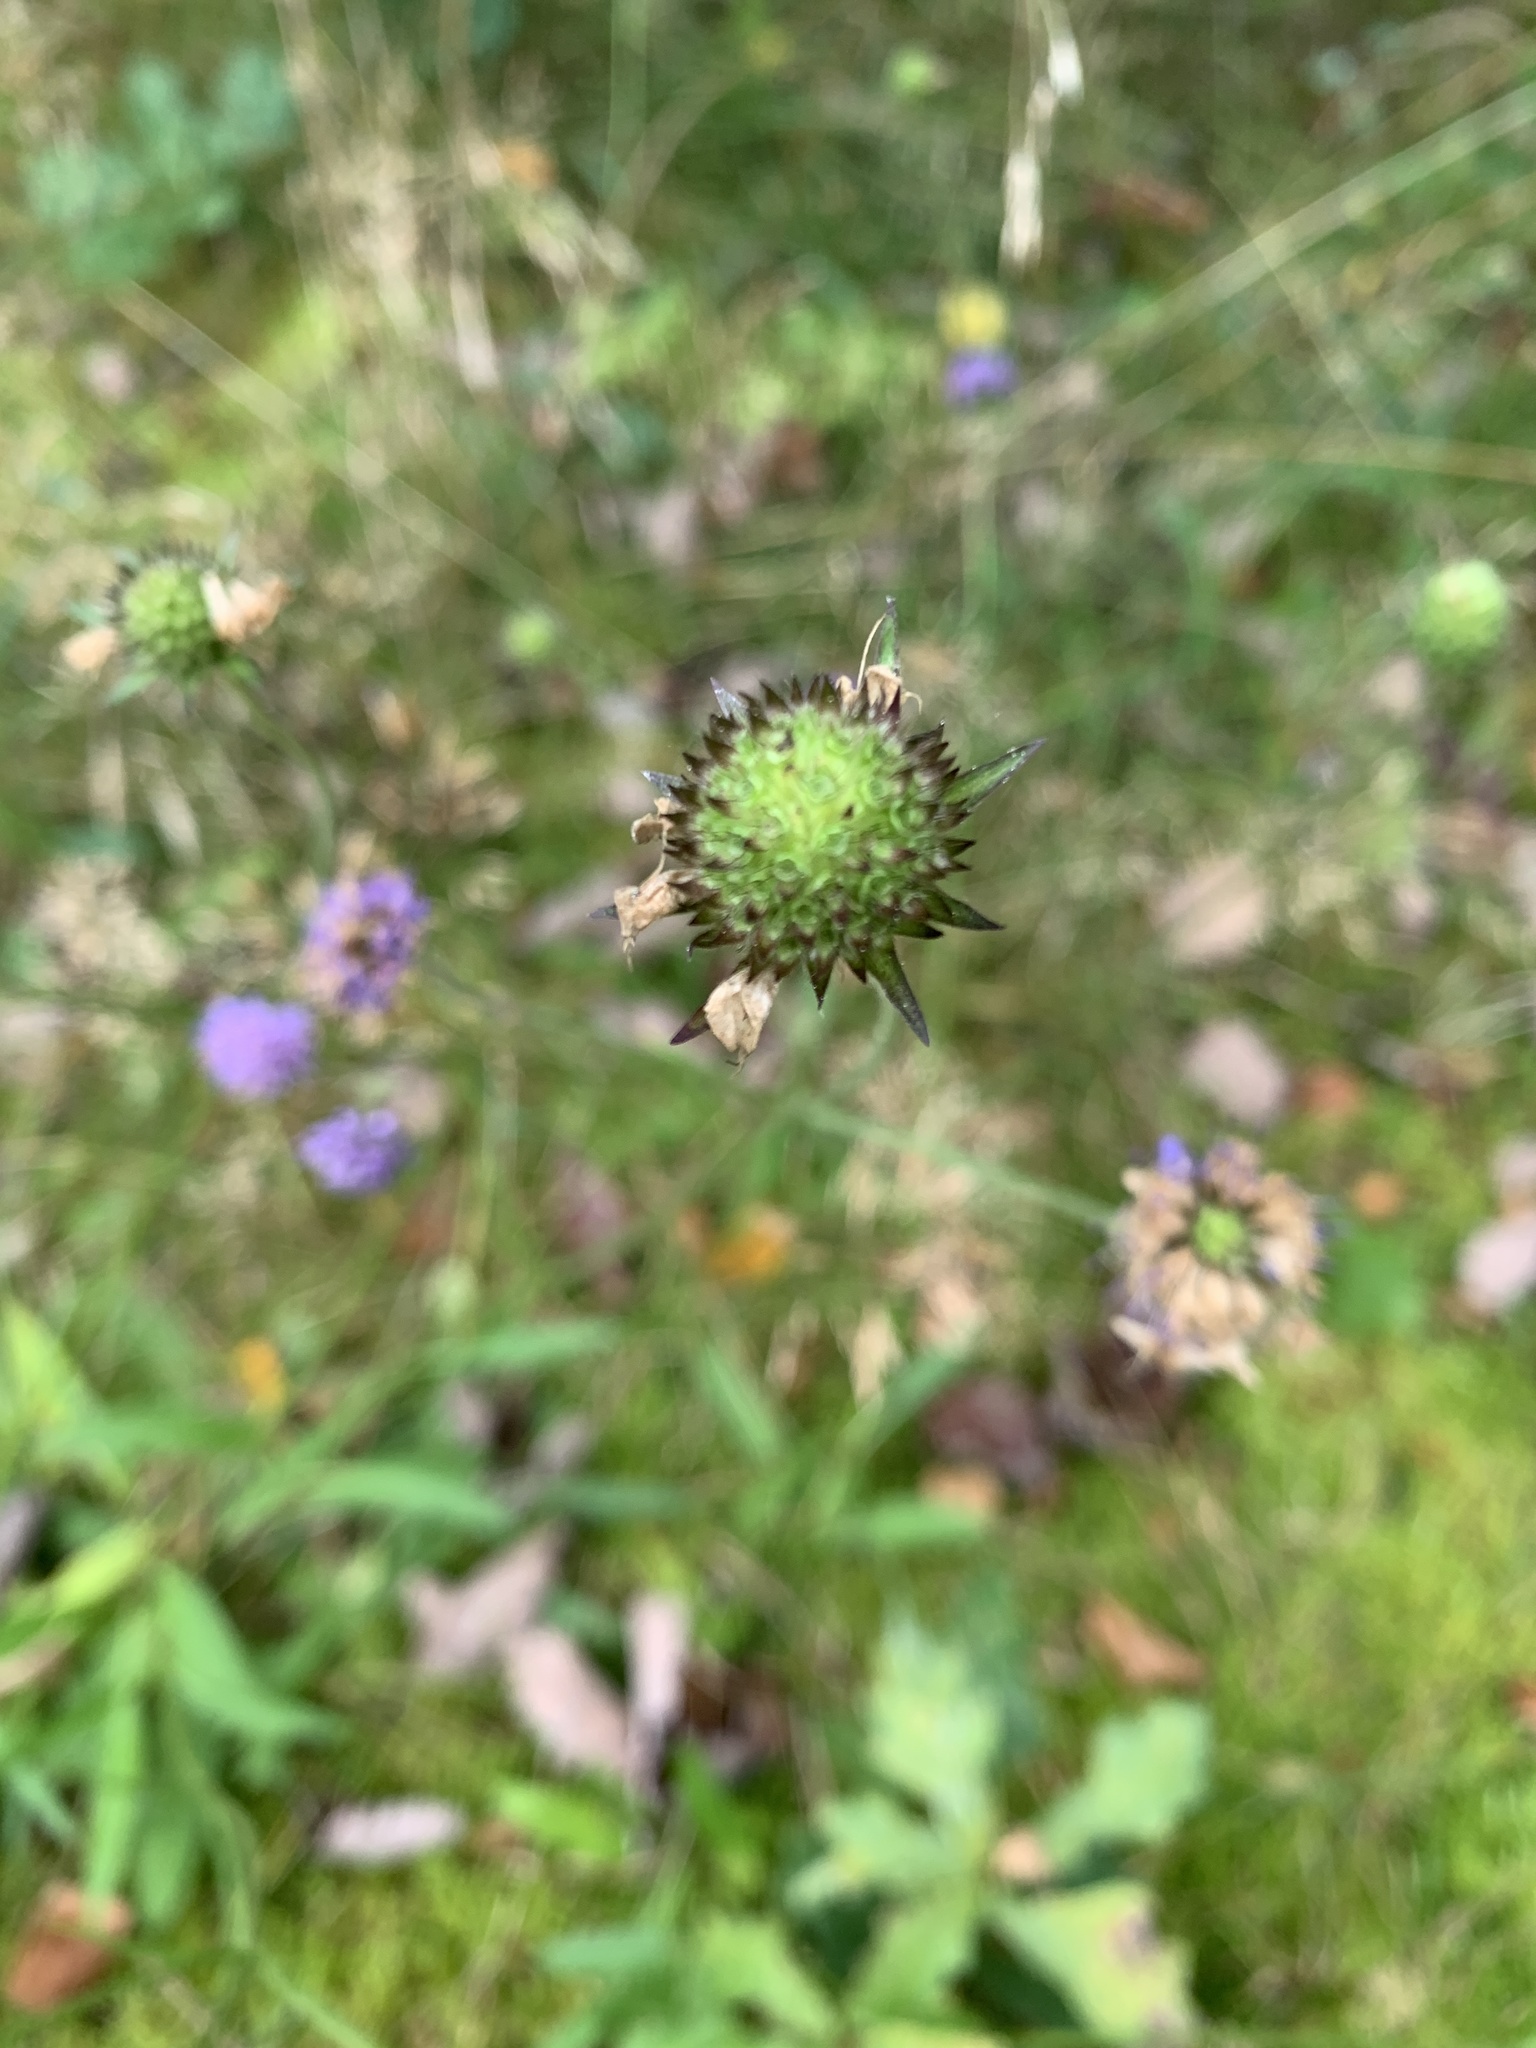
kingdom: Plantae
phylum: Tracheophyta
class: Magnoliopsida
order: Dipsacales
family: Caprifoliaceae
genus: Succisa
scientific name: Succisa pratensis
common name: Devil's-bit
